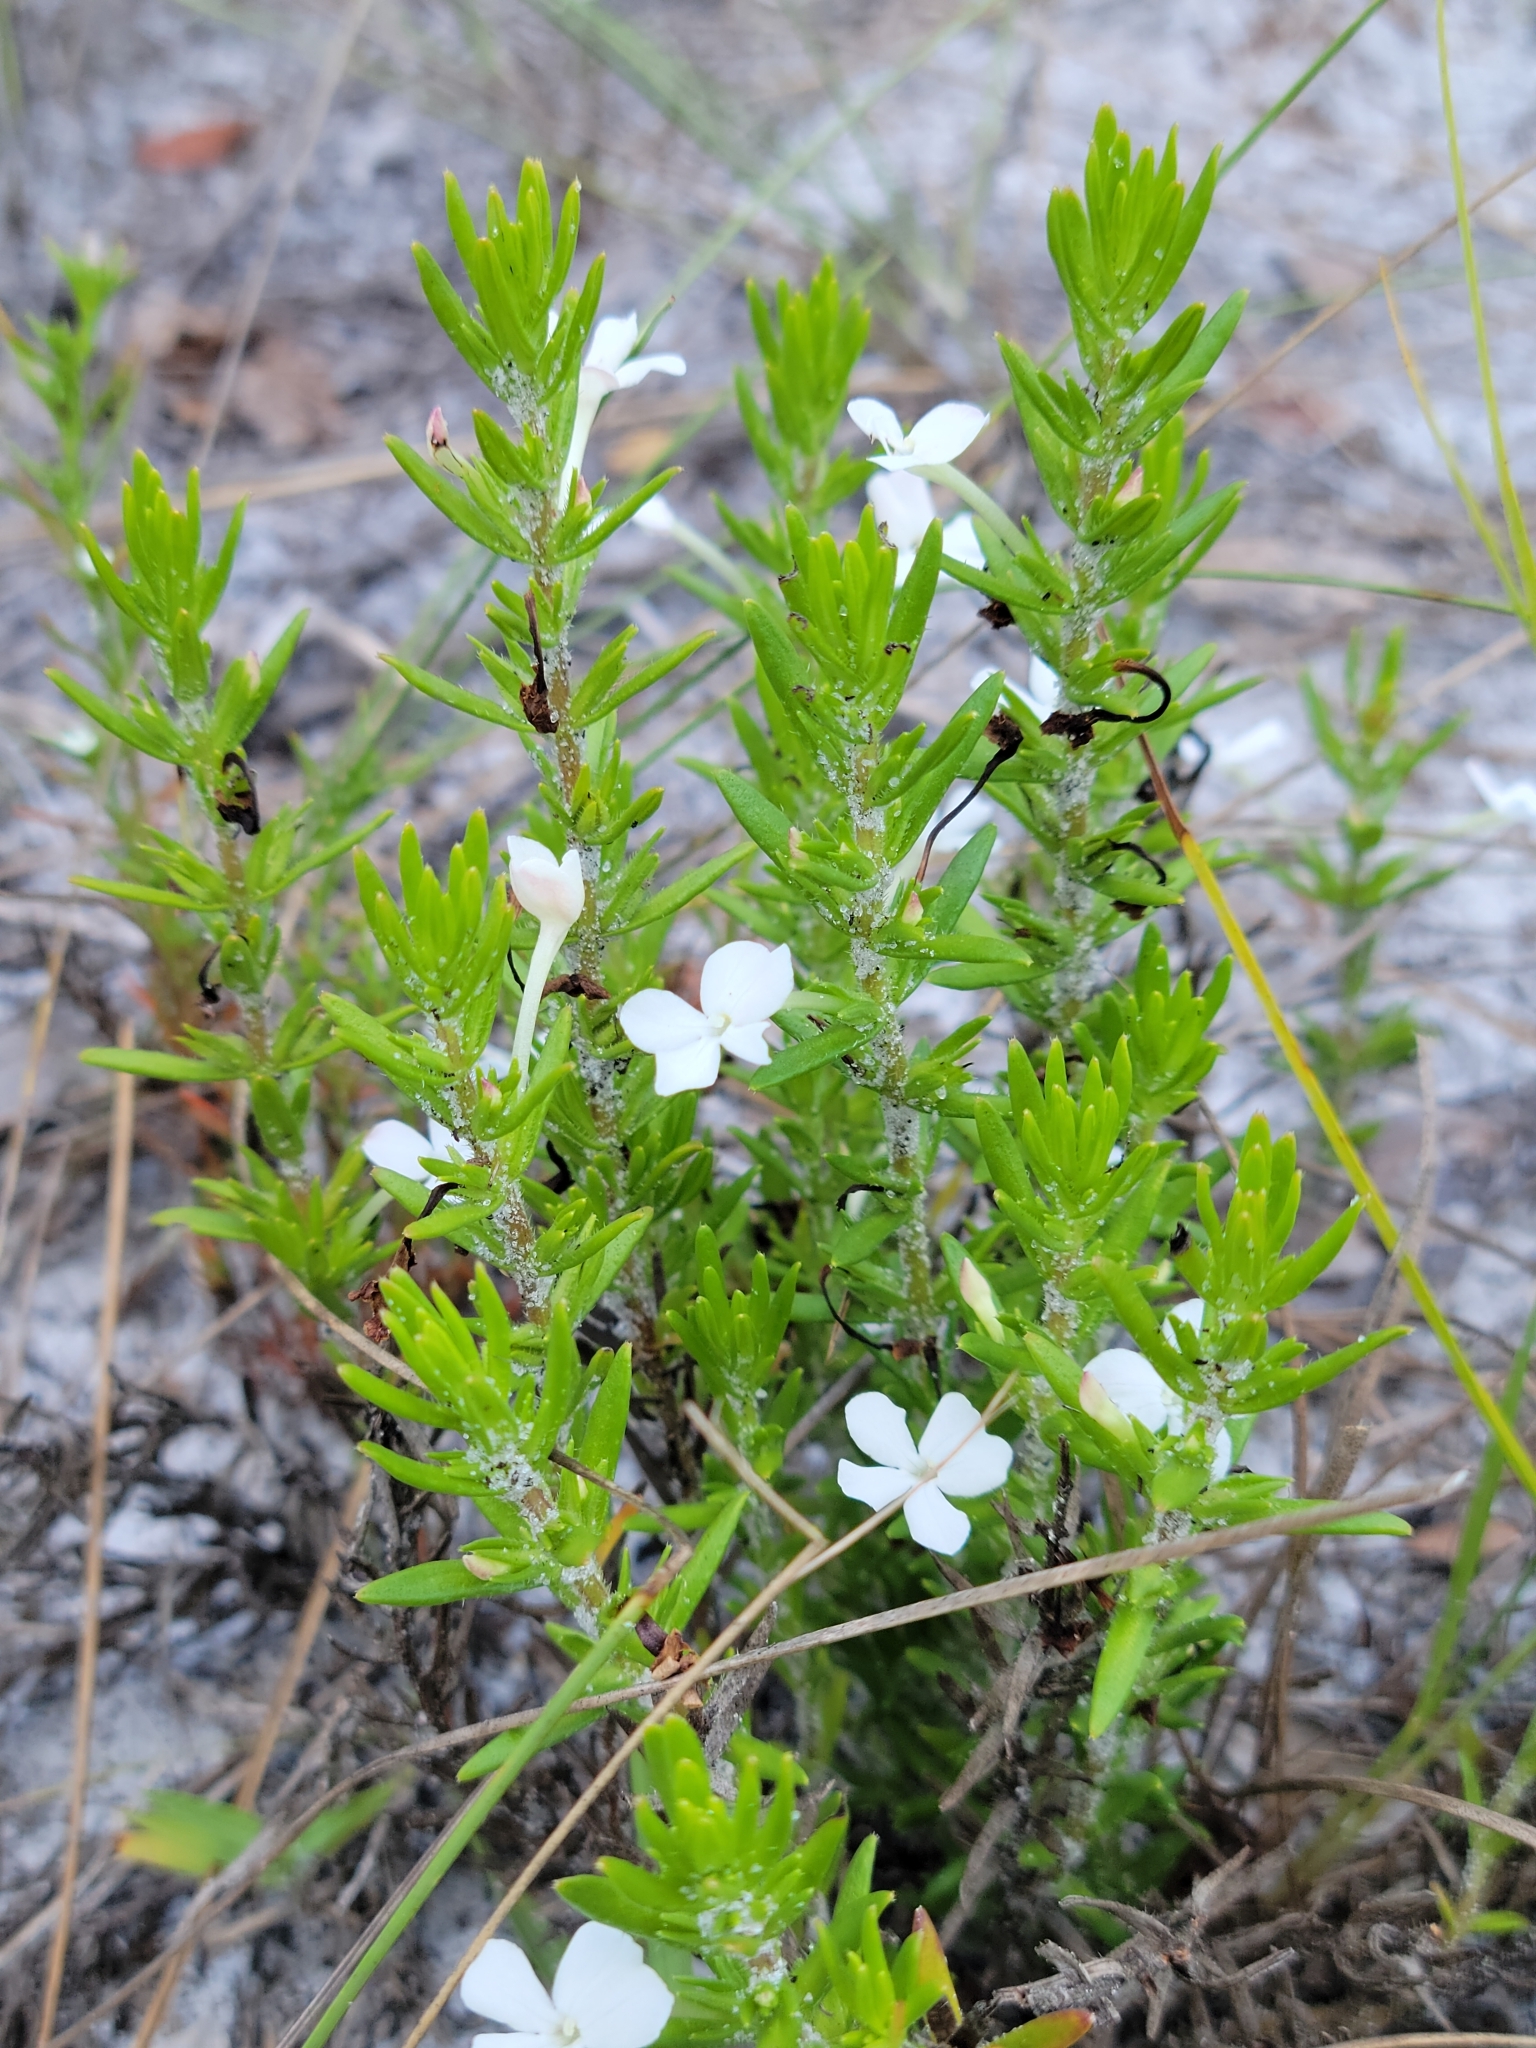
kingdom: Plantae
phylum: Tracheophyta
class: Magnoliopsida
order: Lamiales
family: Plantaginaceae
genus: Gratiola
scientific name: Gratiola hispida
